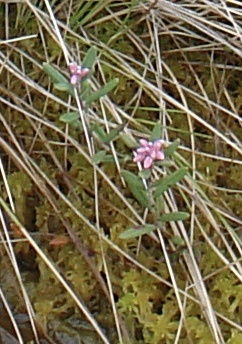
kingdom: Plantae
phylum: Tracheophyta
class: Magnoliopsida
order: Ericales
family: Ericaceae
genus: Andromeda
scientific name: Andromeda polifolia
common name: Bog-rosemary
